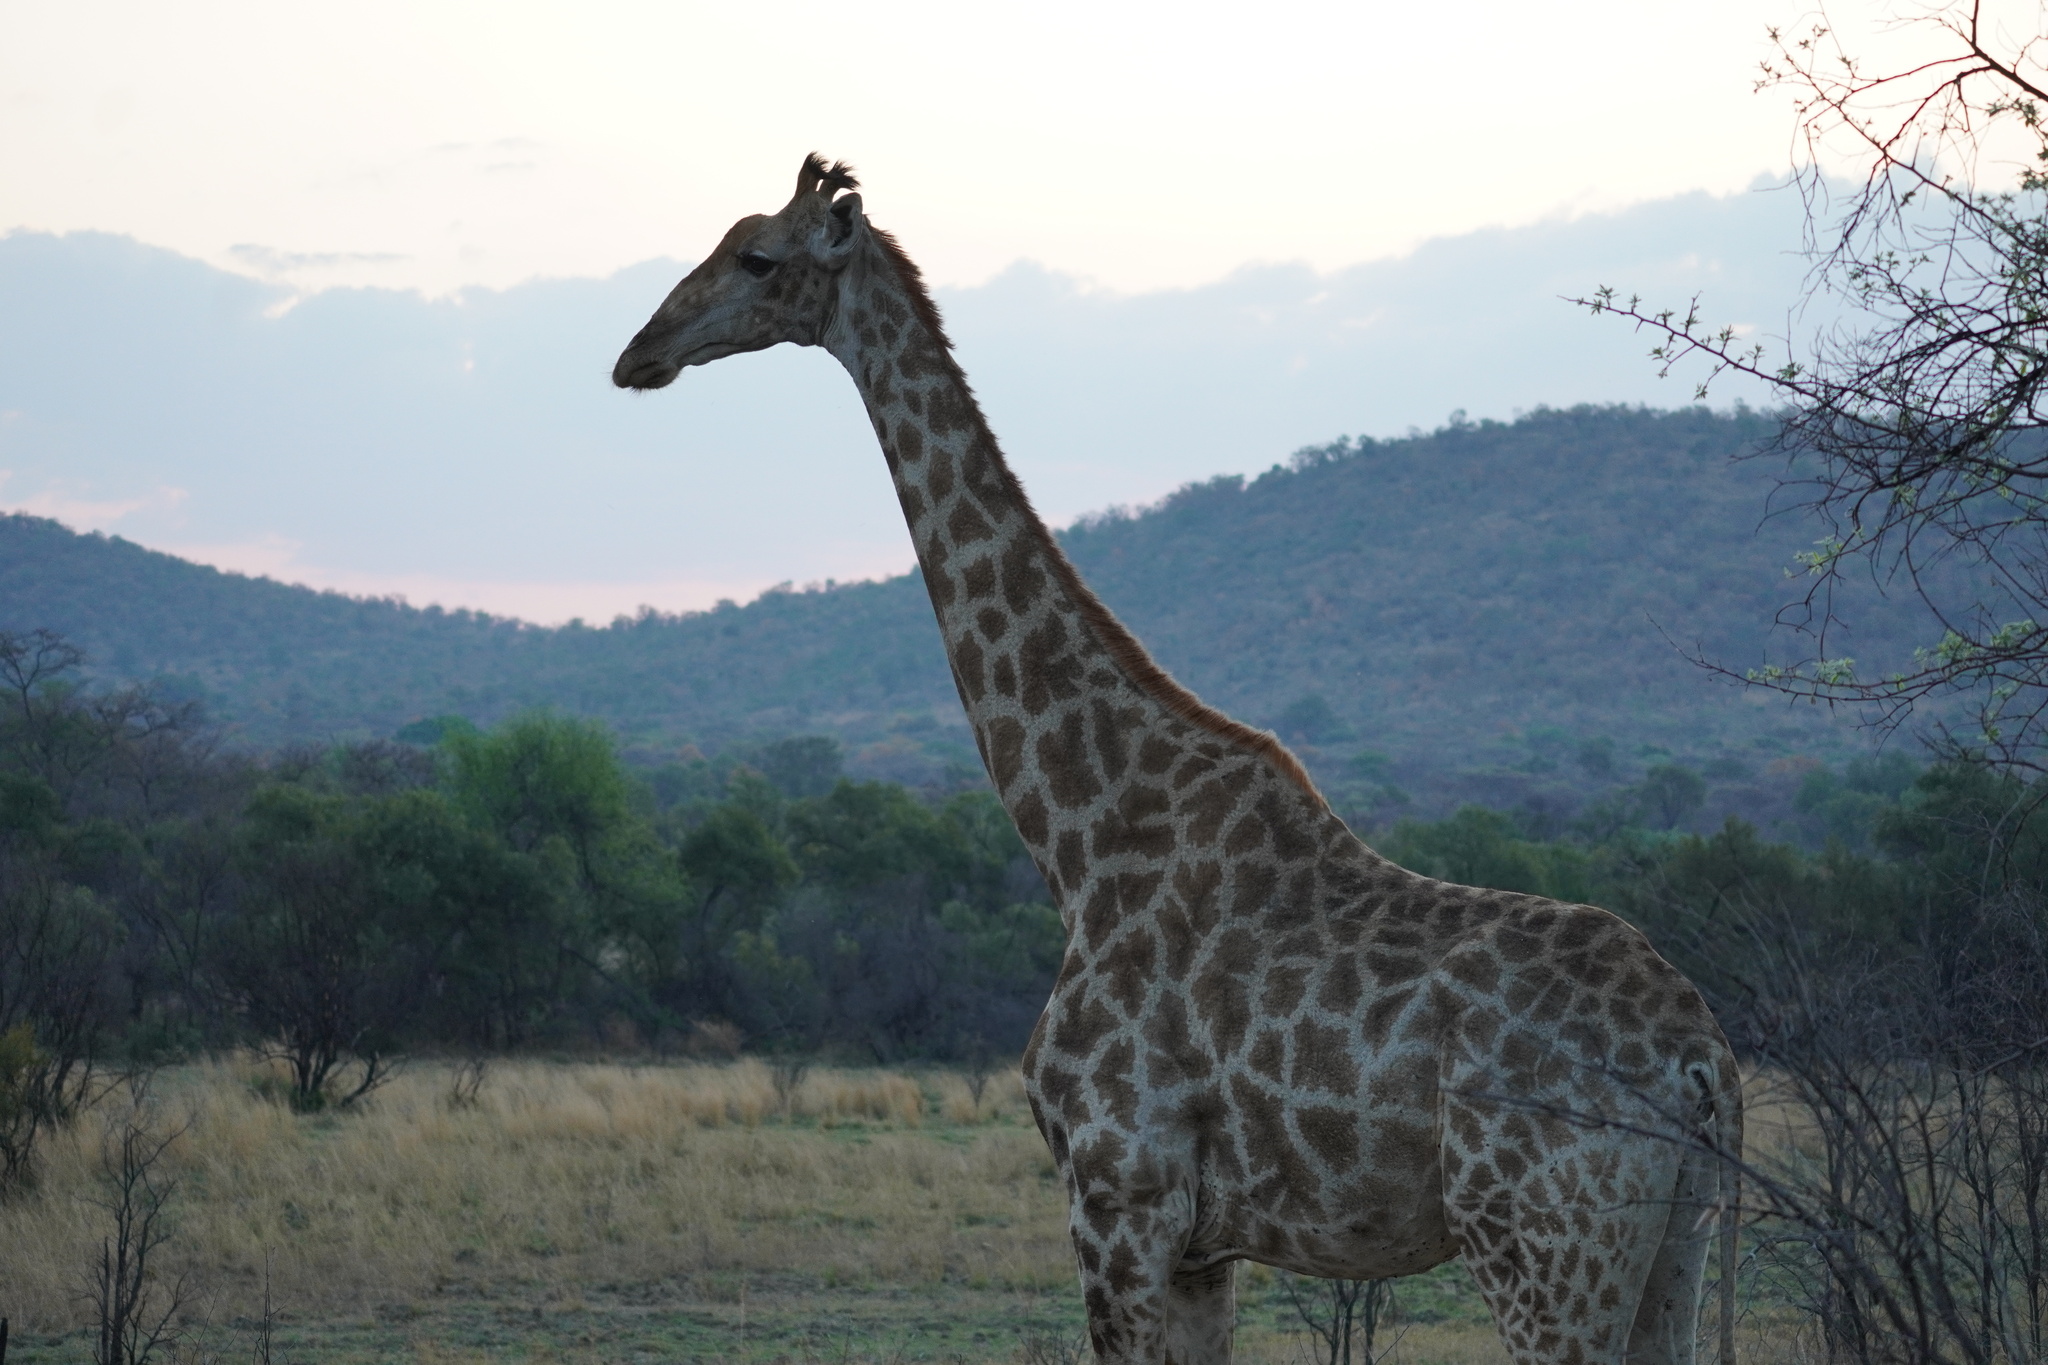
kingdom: Animalia
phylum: Chordata
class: Mammalia
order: Artiodactyla
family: Giraffidae
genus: Giraffa
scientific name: Giraffa giraffa
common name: Southern giraffe
